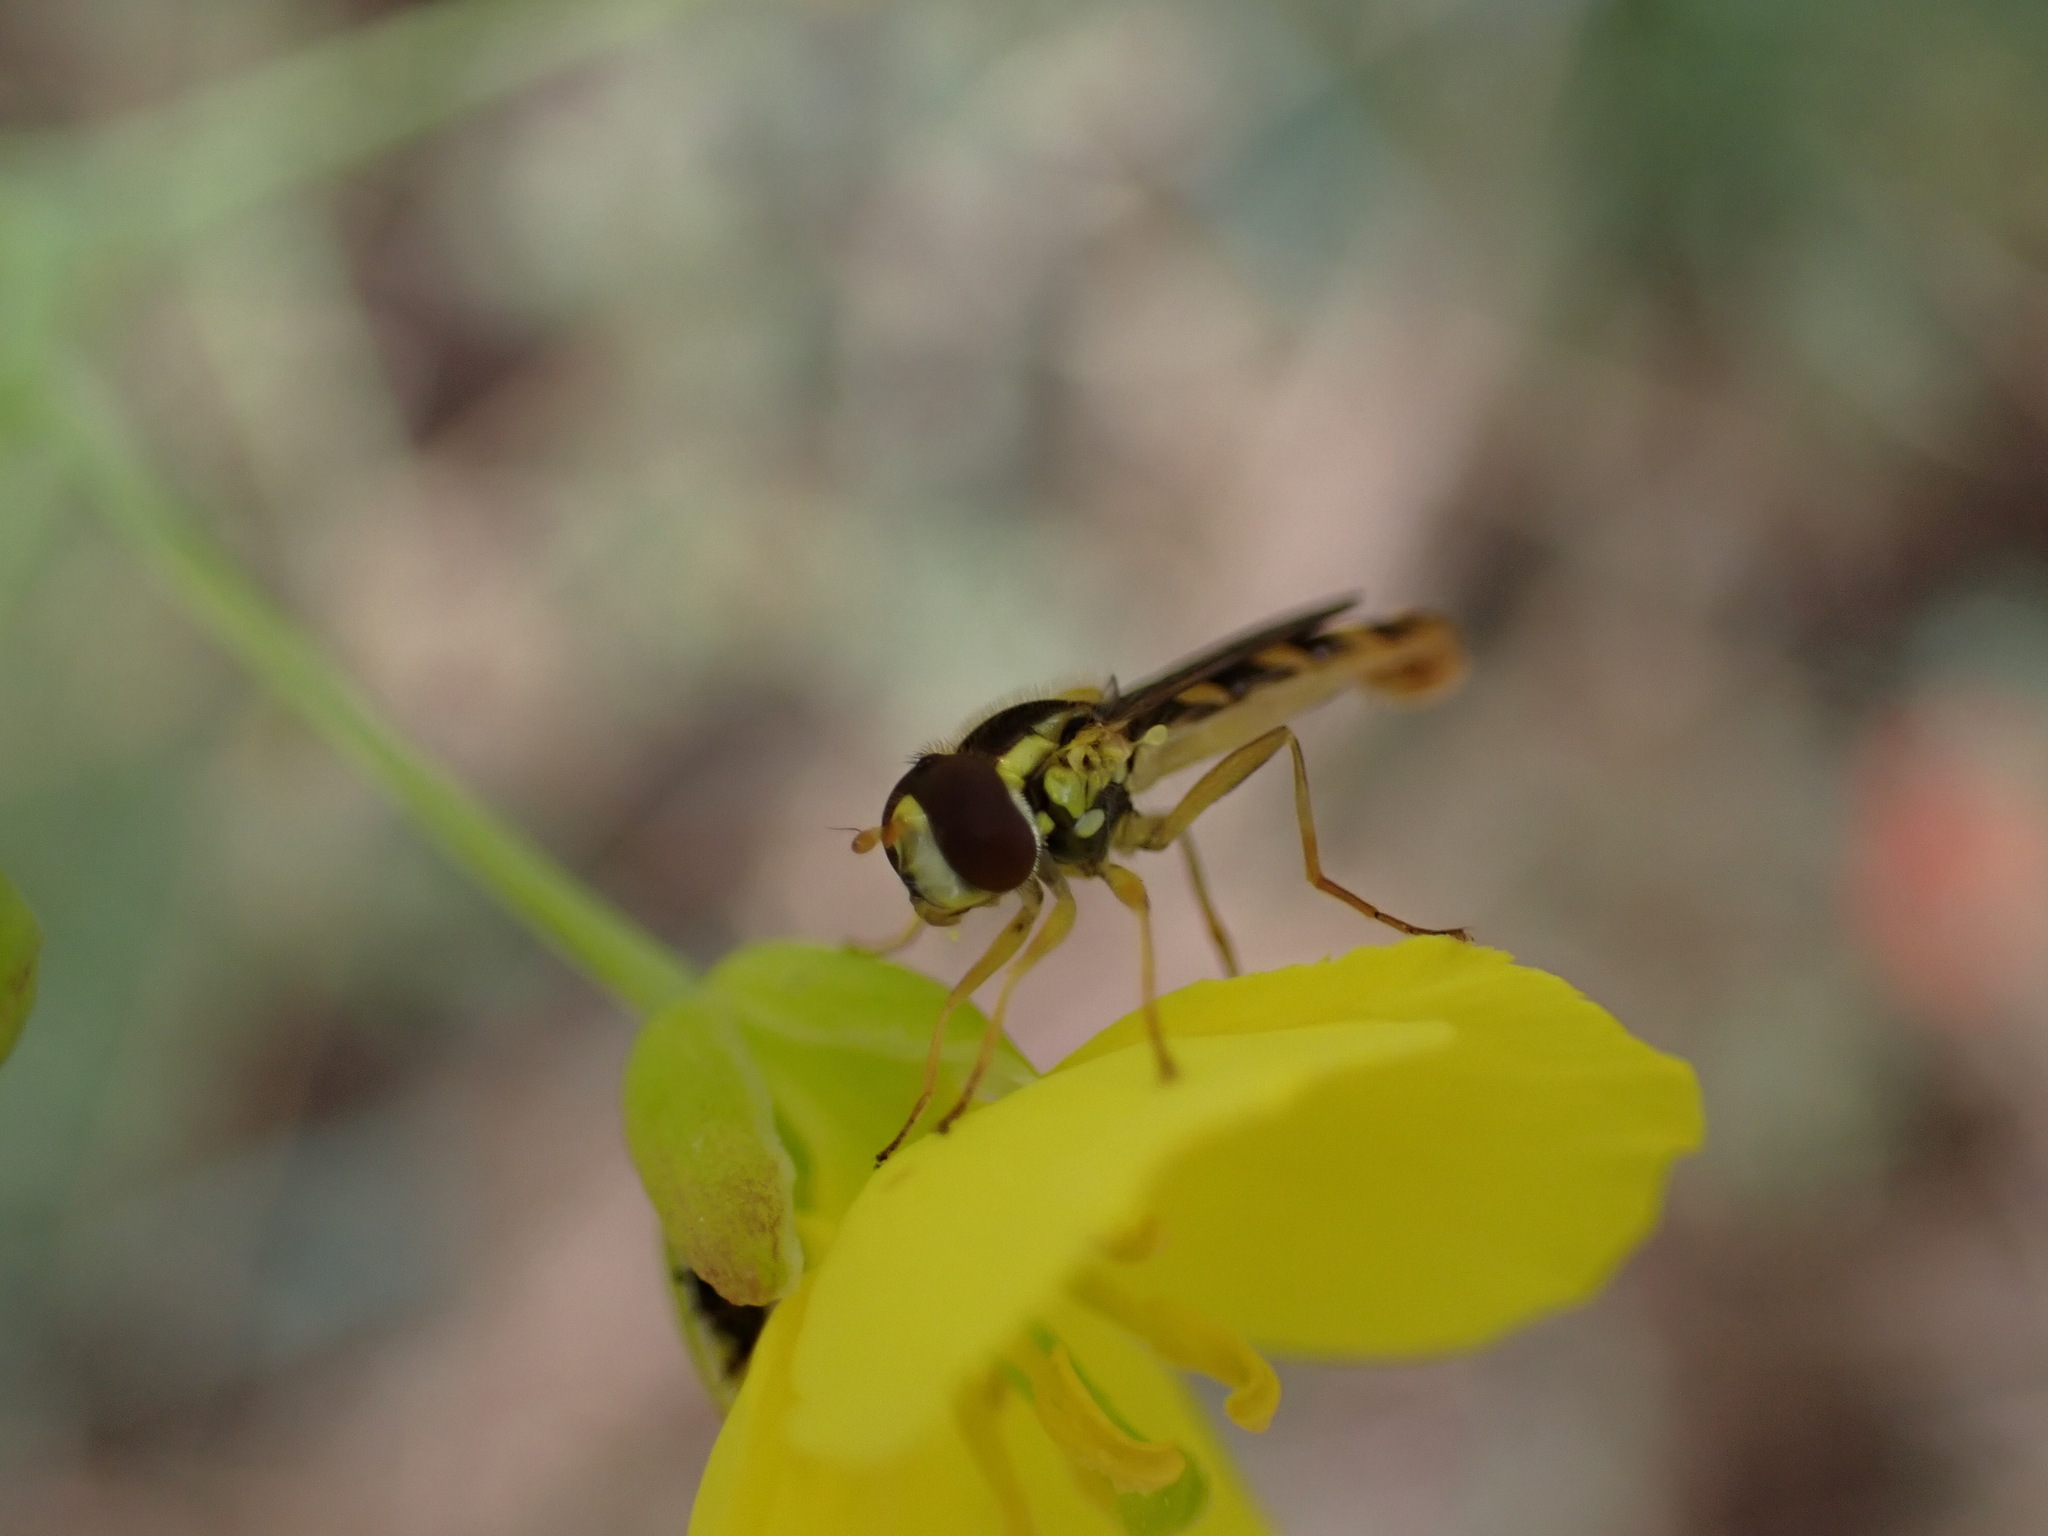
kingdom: Animalia
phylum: Arthropoda
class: Insecta
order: Diptera
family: Syrphidae
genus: Sphaerophoria
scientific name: Sphaerophoria scripta
